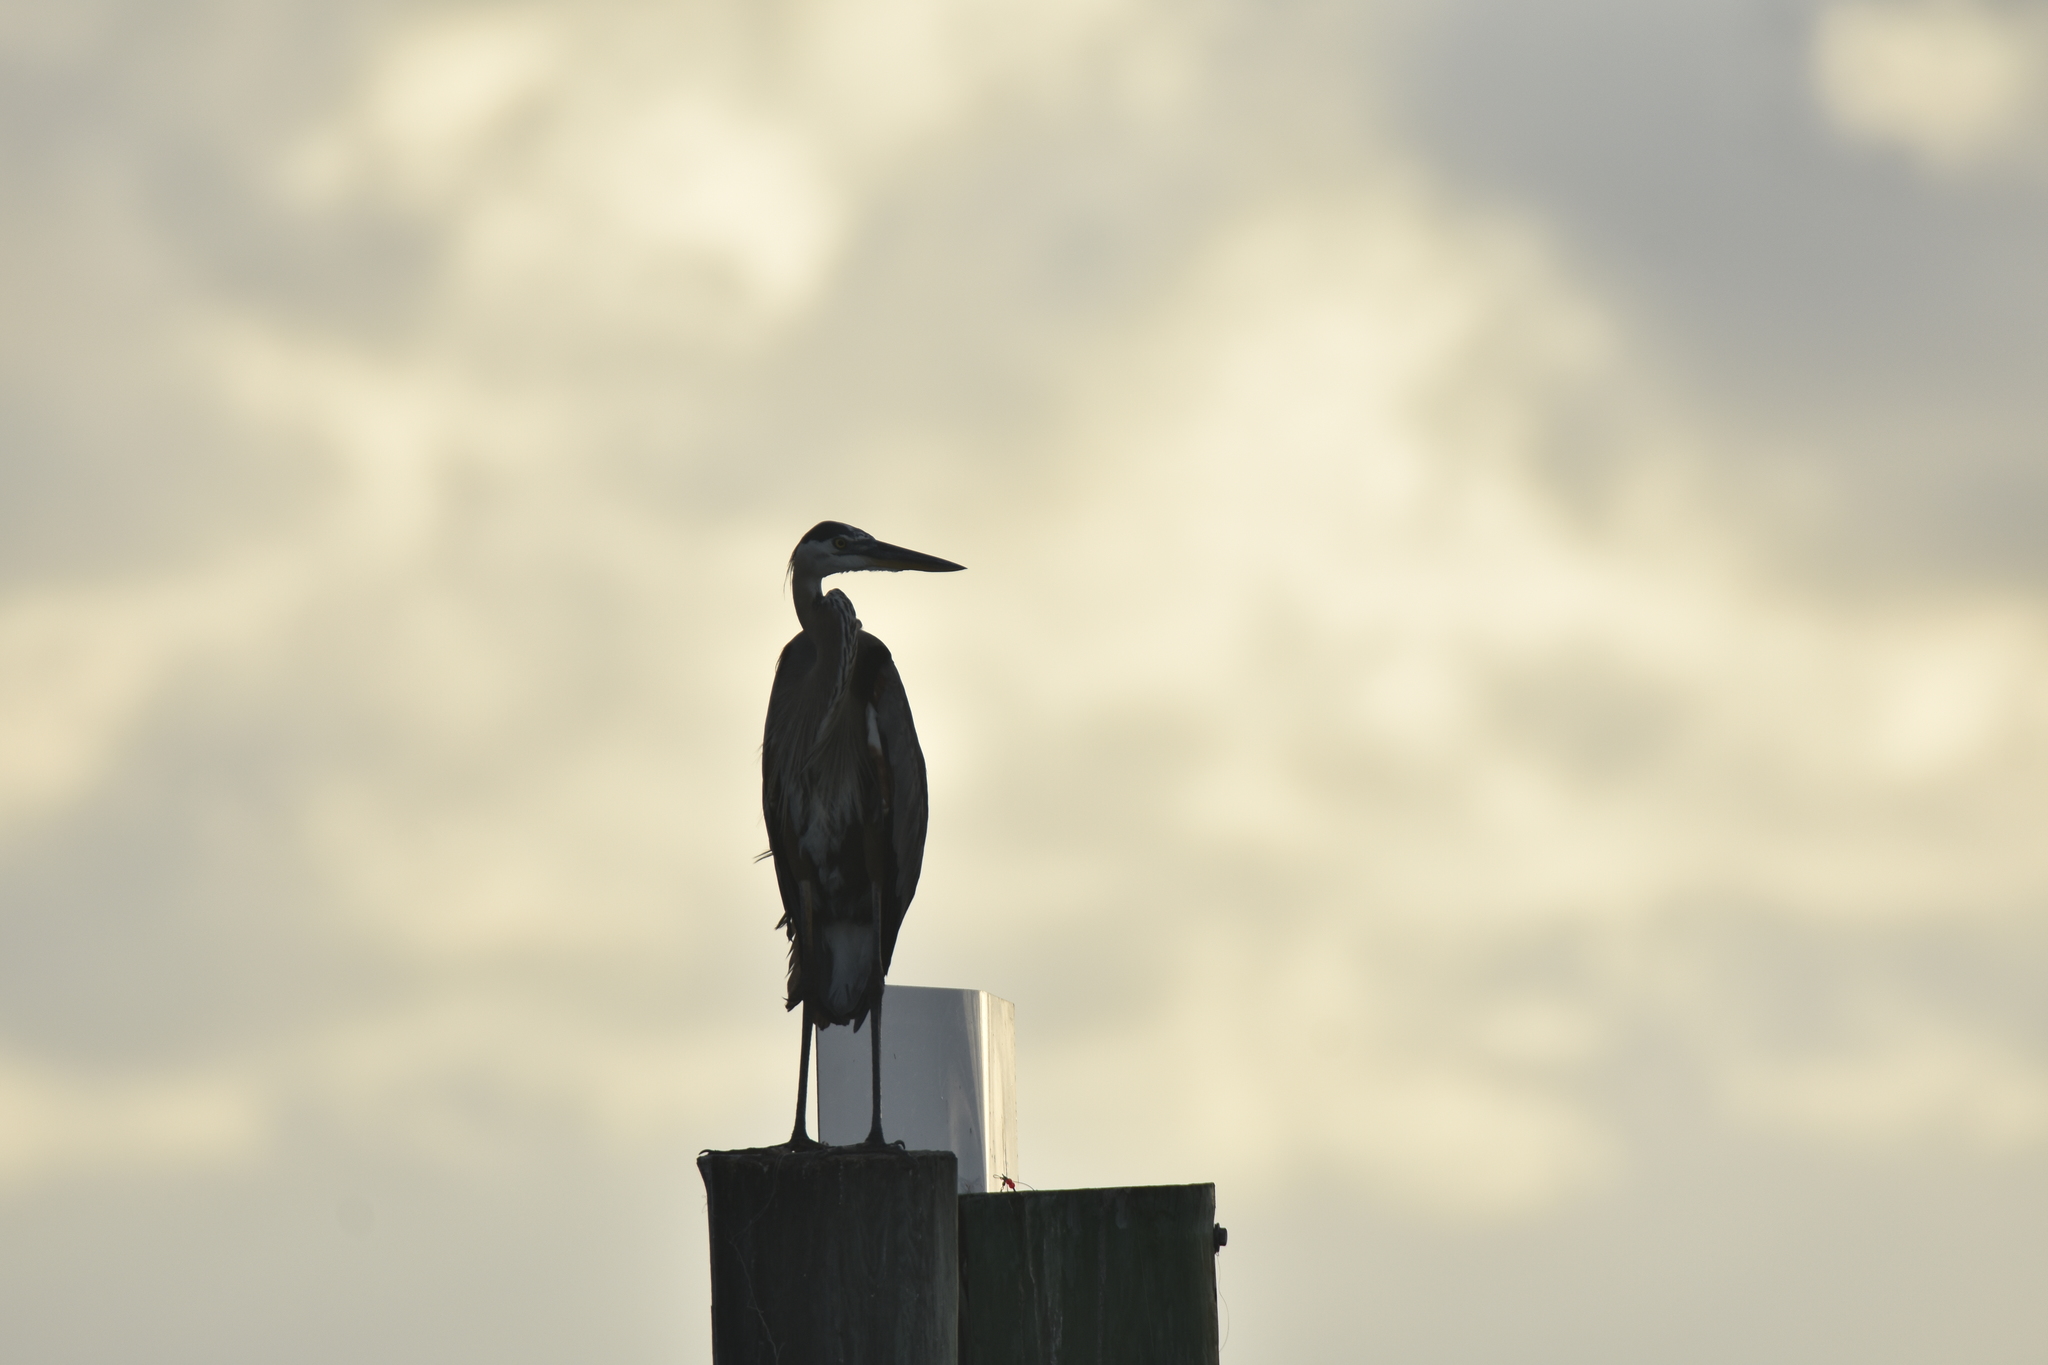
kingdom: Animalia
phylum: Chordata
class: Aves
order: Pelecaniformes
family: Ardeidae
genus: Ardea
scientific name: Ardea herodias
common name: Great blue heron
